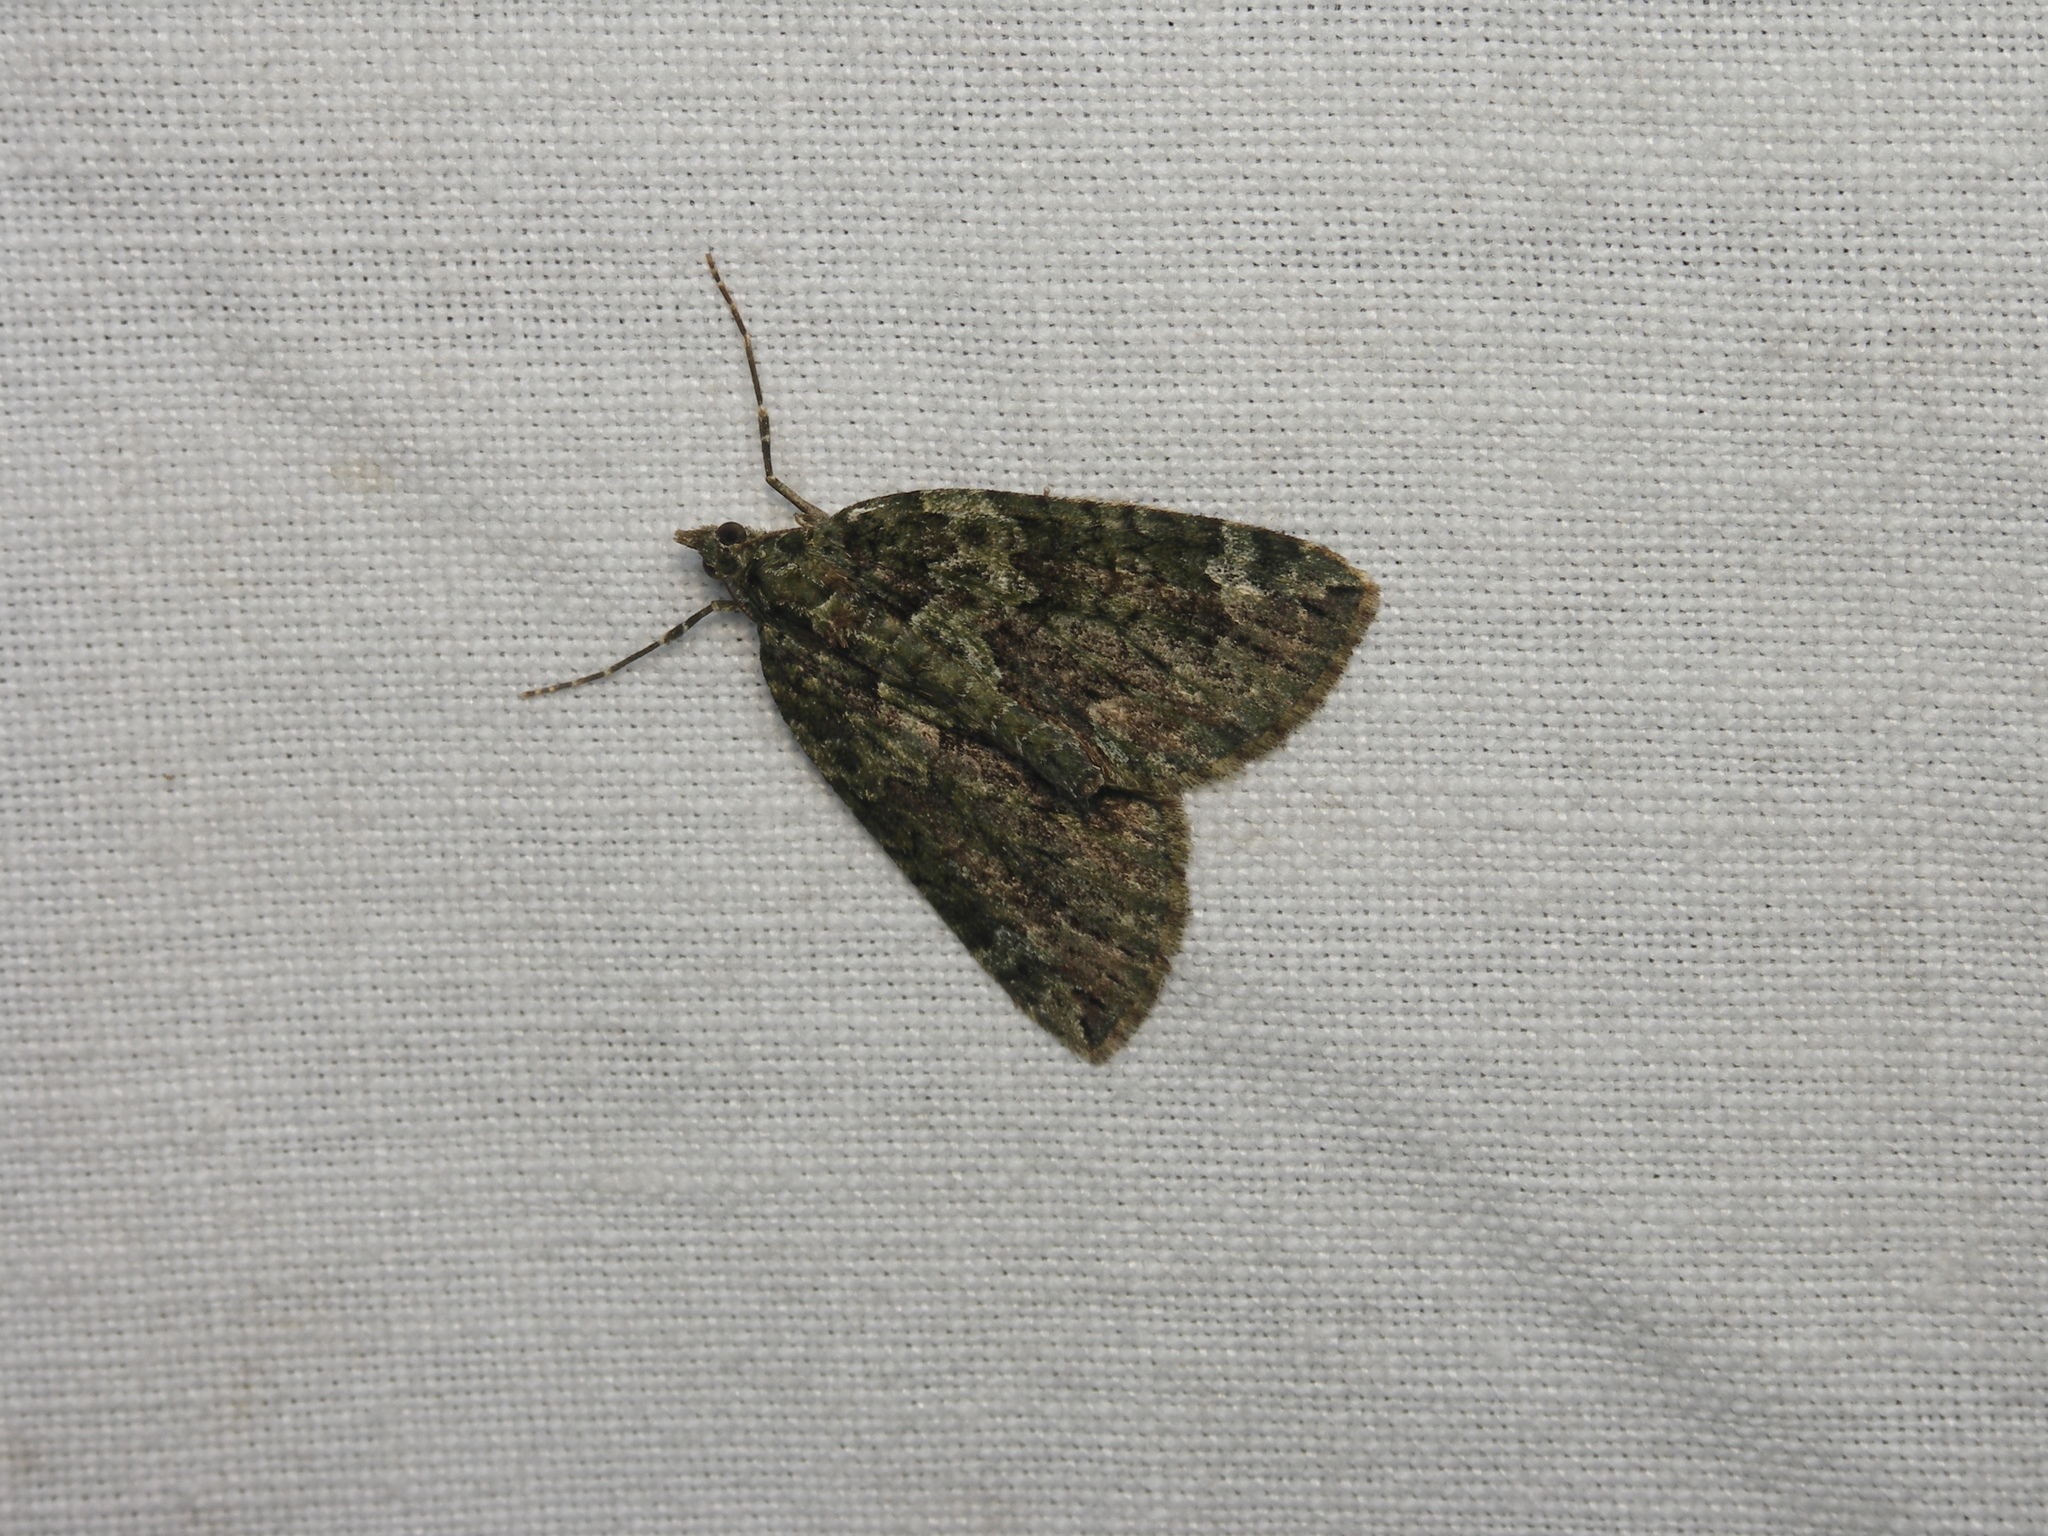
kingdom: Animalia
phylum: Arthropoda
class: Insecta
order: Lepidoptera
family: Geometridae
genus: Chloroclysta
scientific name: Chloroclysta siterata
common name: Red-green carpet
